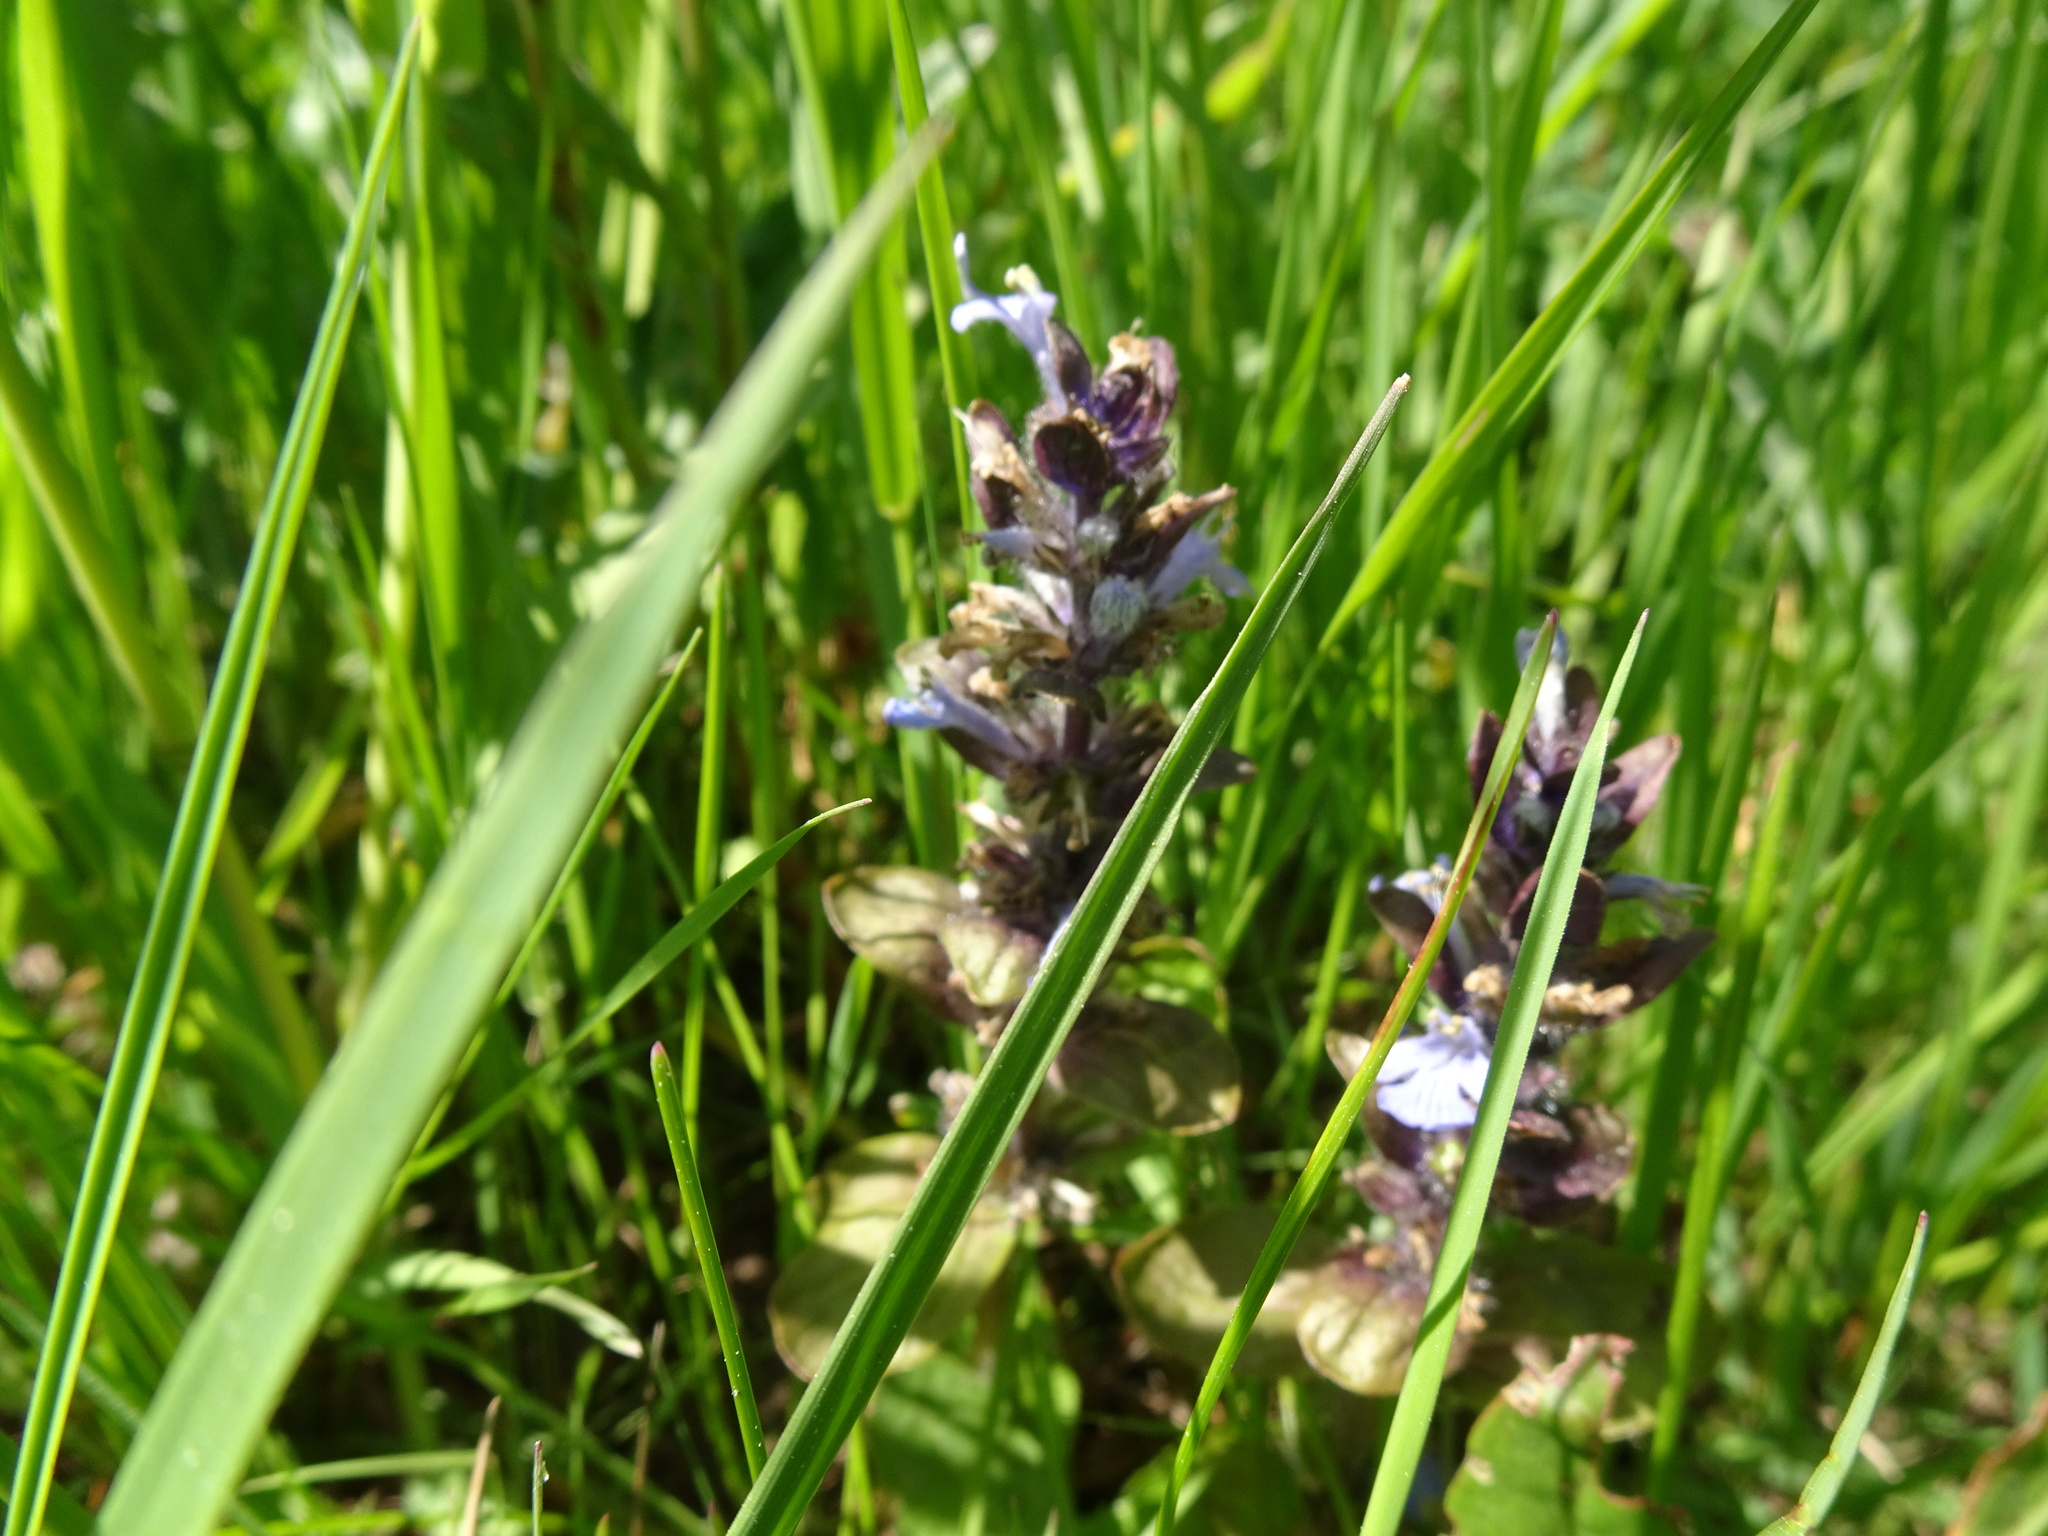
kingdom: Plantae
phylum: Tracheophyta
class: Magnoliopsida
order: Lamiales
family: Lamiaceae
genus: Ajuga
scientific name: Ajuga reptans
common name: Bugle
